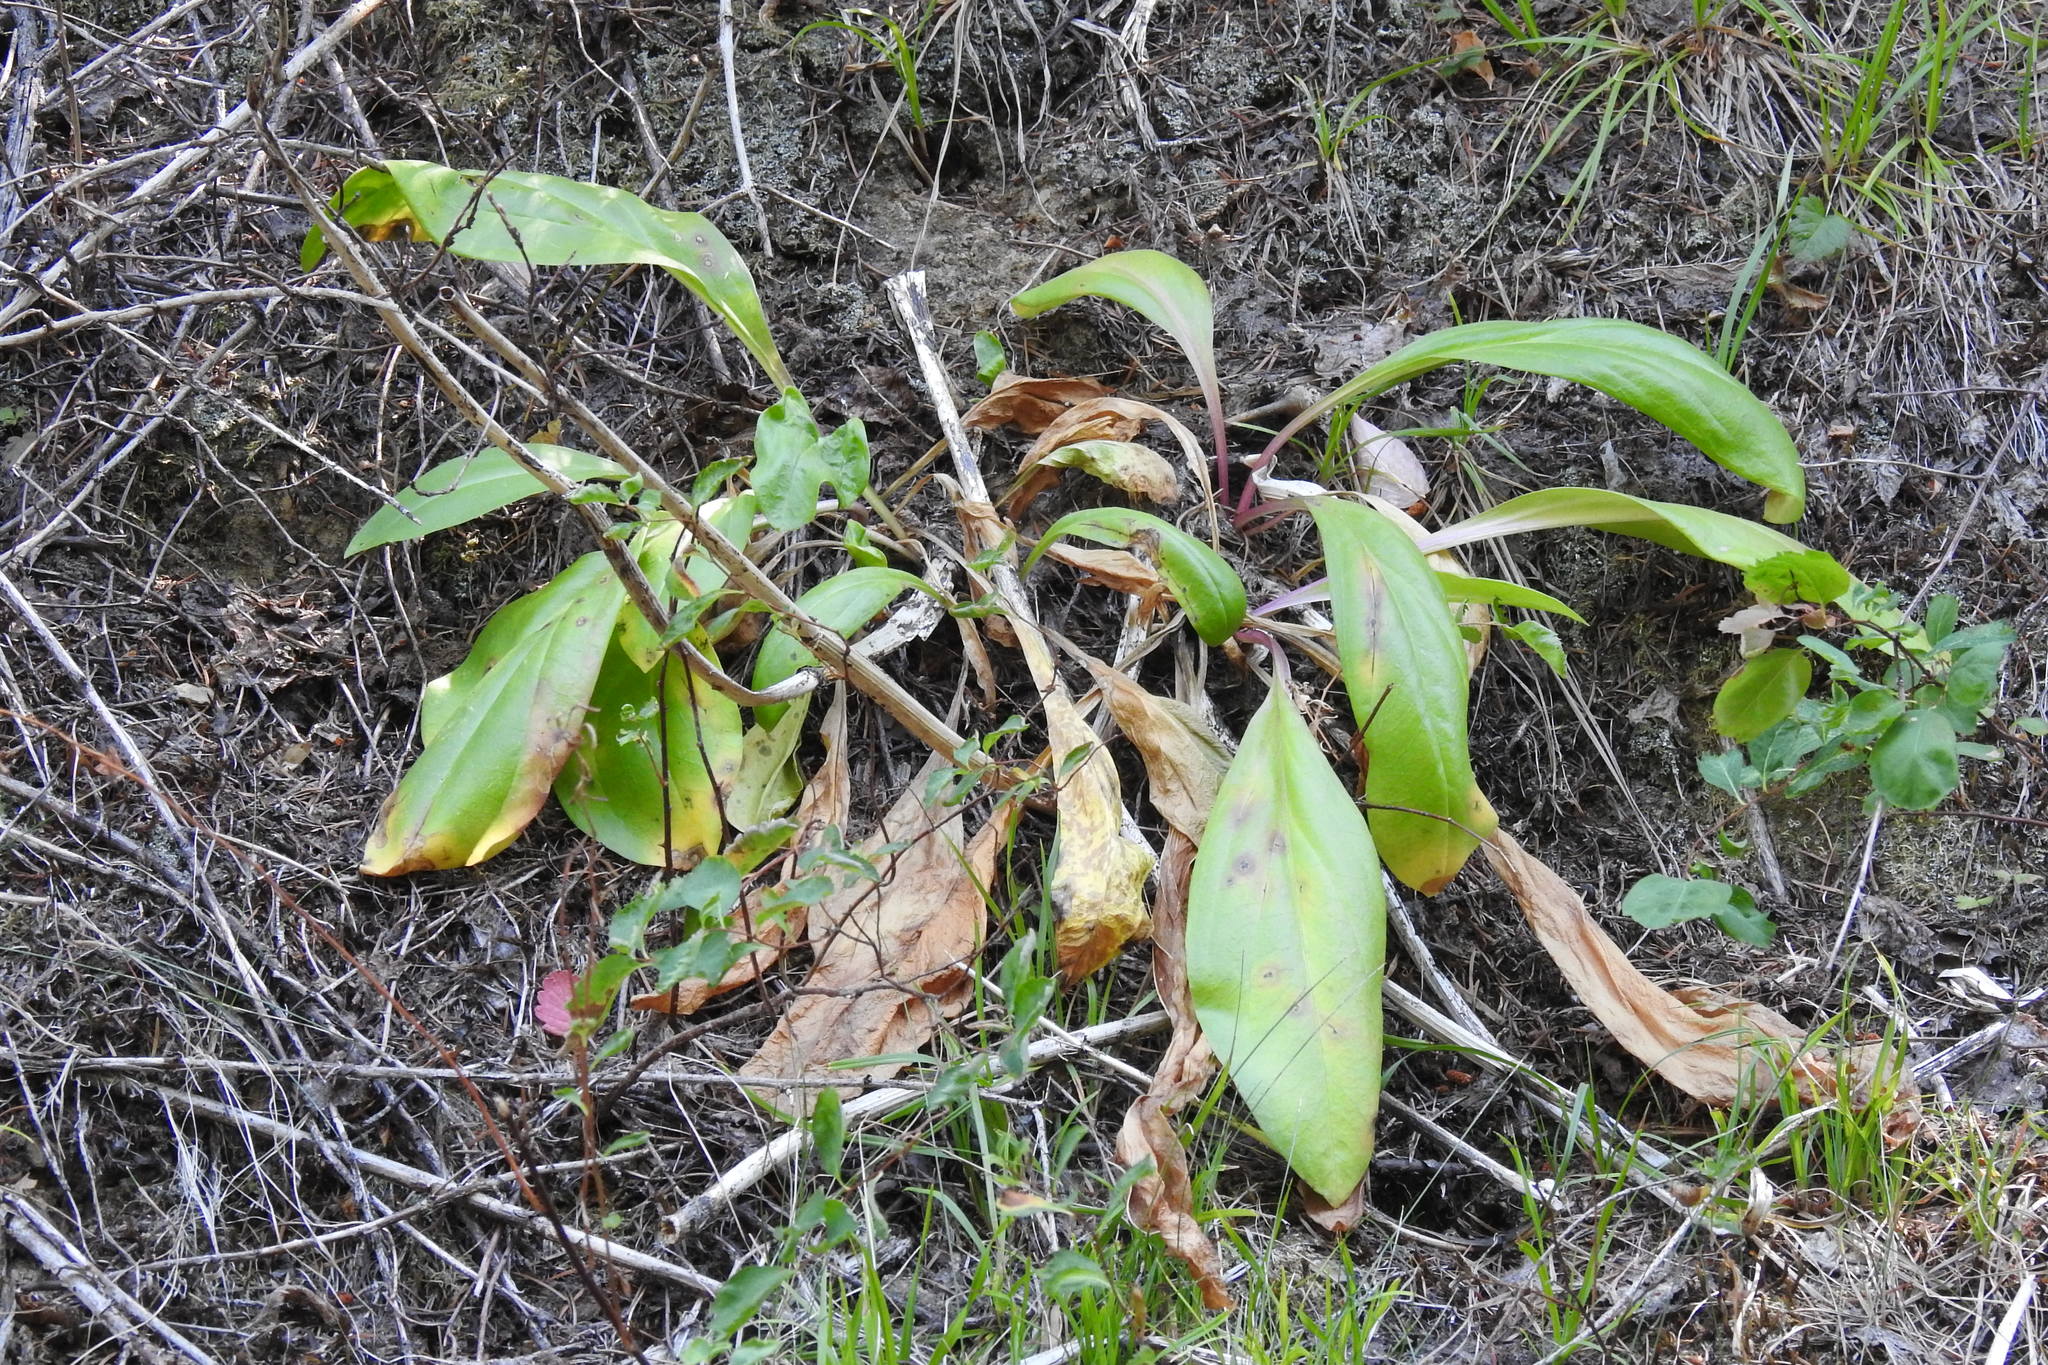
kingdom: Plantae
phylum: Tracheophyta
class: Magnoliopsida
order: Gentianales
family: Gentianaceae
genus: Frasera
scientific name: Frasera fastigiata
